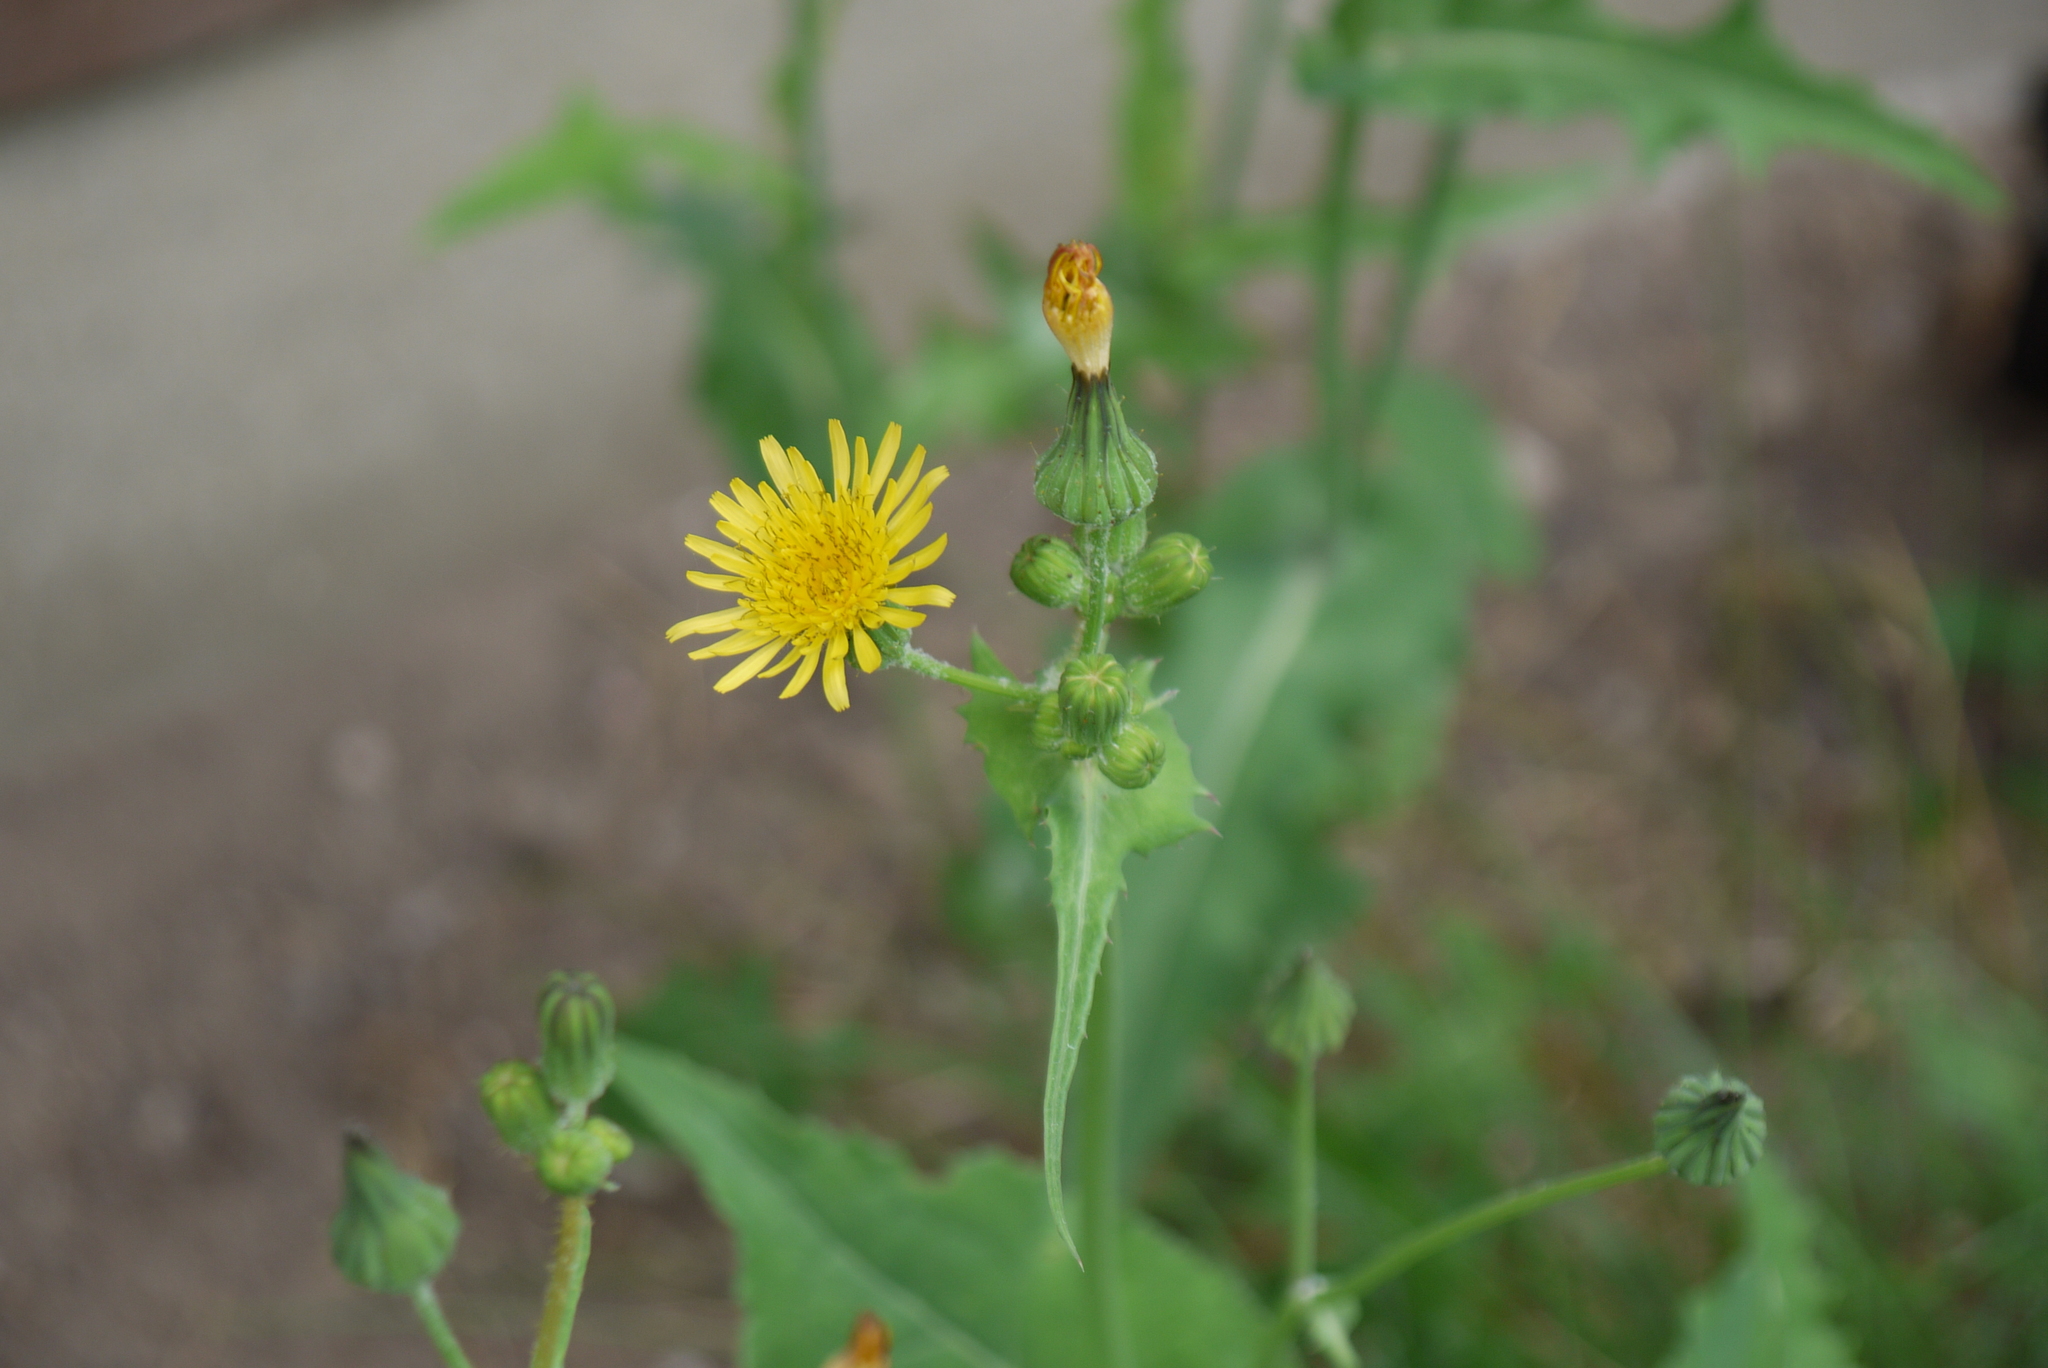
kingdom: Plantae
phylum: Tracheophyta
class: Magnoliopsida
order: Asterales
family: Asteraceae
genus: Sonchus
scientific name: Sonchus oleraceus
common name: Common sowthistle
